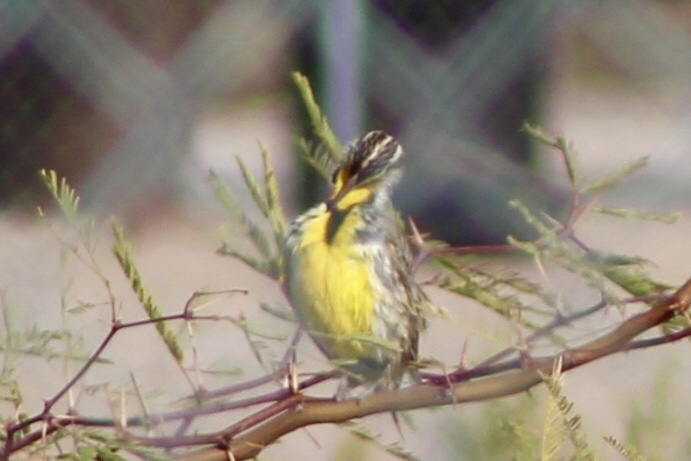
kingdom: Animalia
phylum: Chordata
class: Aves
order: Passeriformes
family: Icteridae
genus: Sturnella
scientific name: Sturnella neglecta
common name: Western meadowlark
